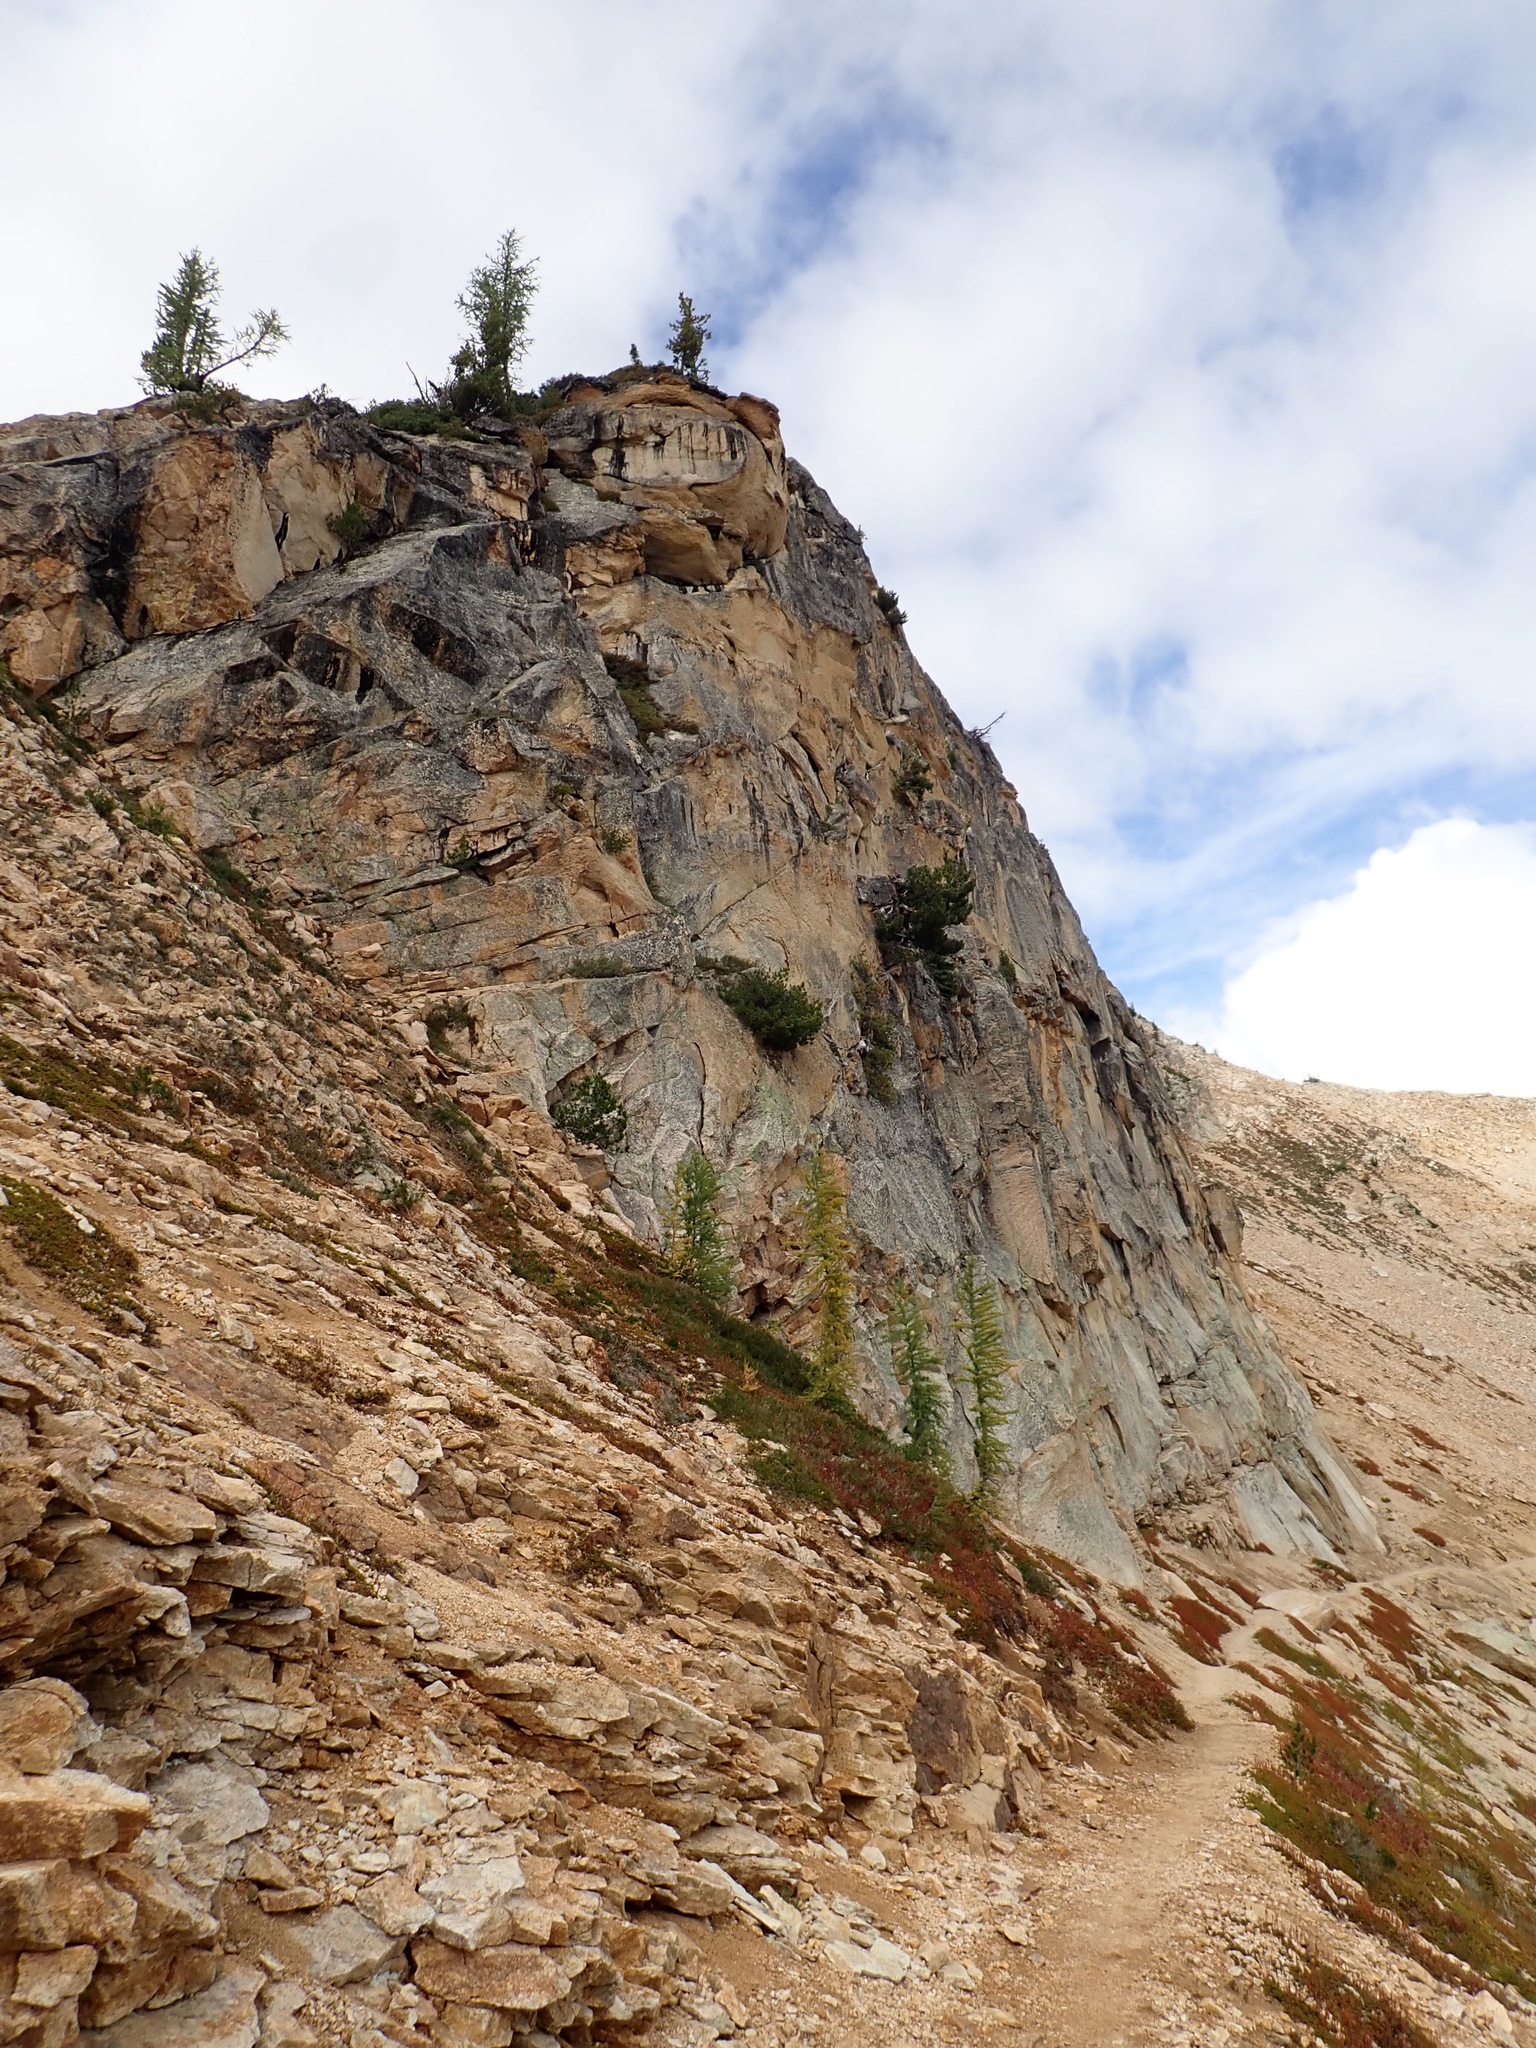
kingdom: Plantae
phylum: Tracheophyta
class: Pinopsida
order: Pinales
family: Pinaceae
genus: Pinus
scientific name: Pinus albicaulis
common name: Whitebark pine
